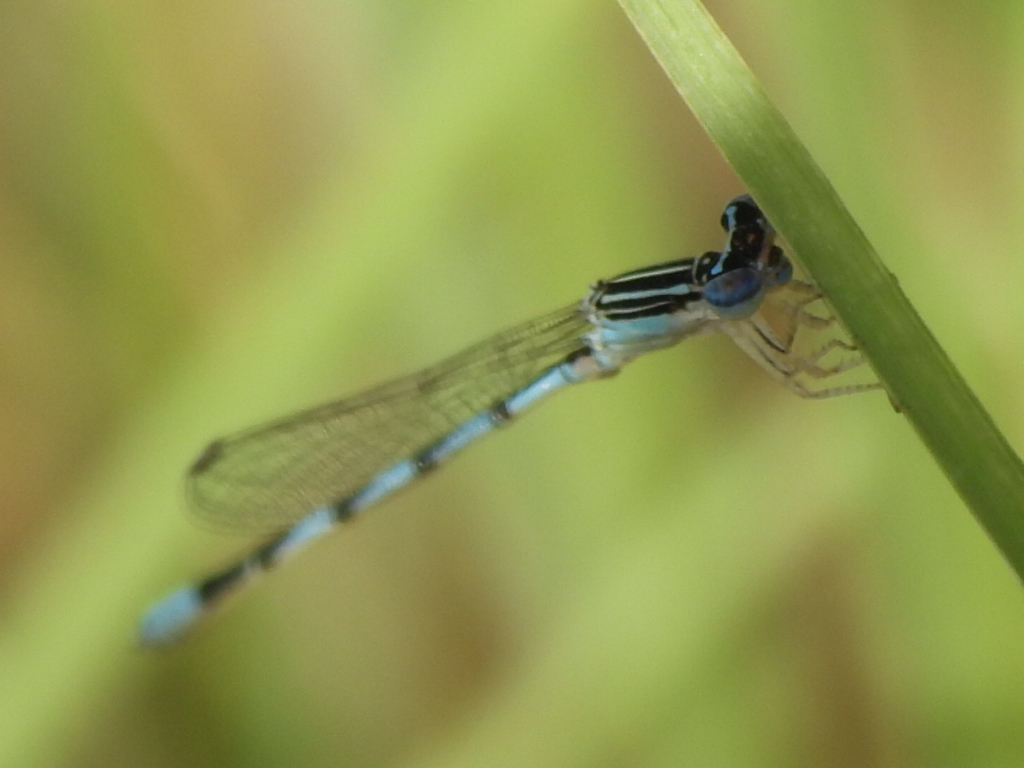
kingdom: Animalia
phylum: Arthropoda
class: Insecta
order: Odonata
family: Coenagrionidae
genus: Enallagma
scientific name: Enallagma basidens
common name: Double-striped bluet
